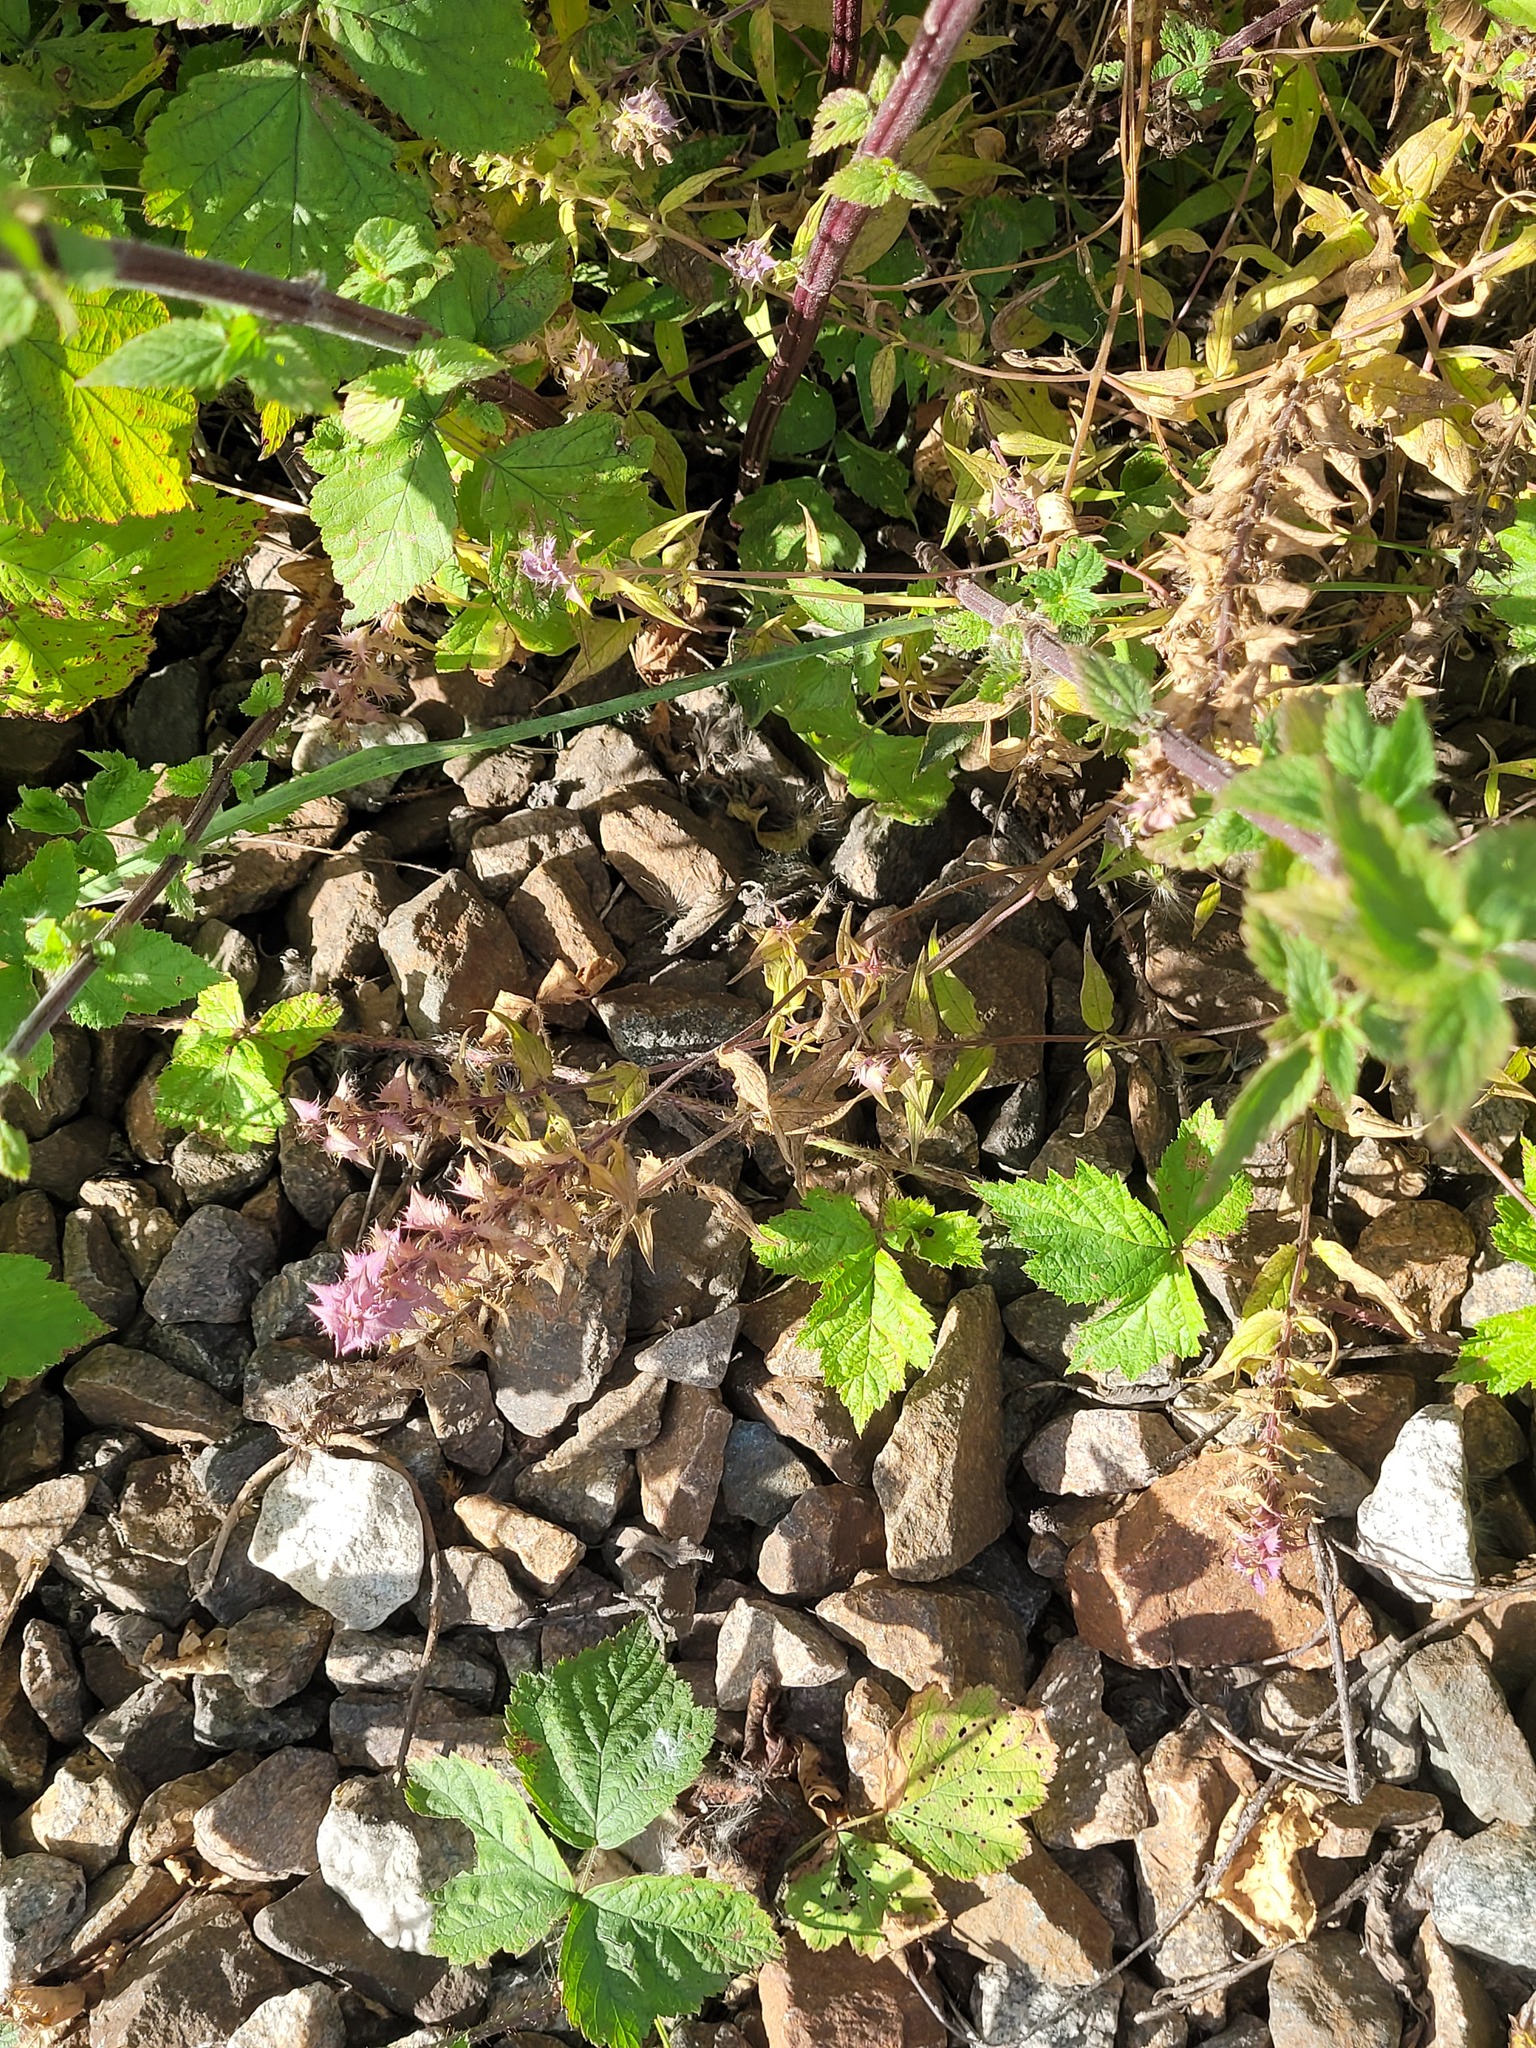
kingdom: Plantae
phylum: Tracheophyta
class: Magnoliopsida
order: Lamiales
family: Orobanchaceae
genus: Melampyrum
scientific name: Melampyrum nemorosum
